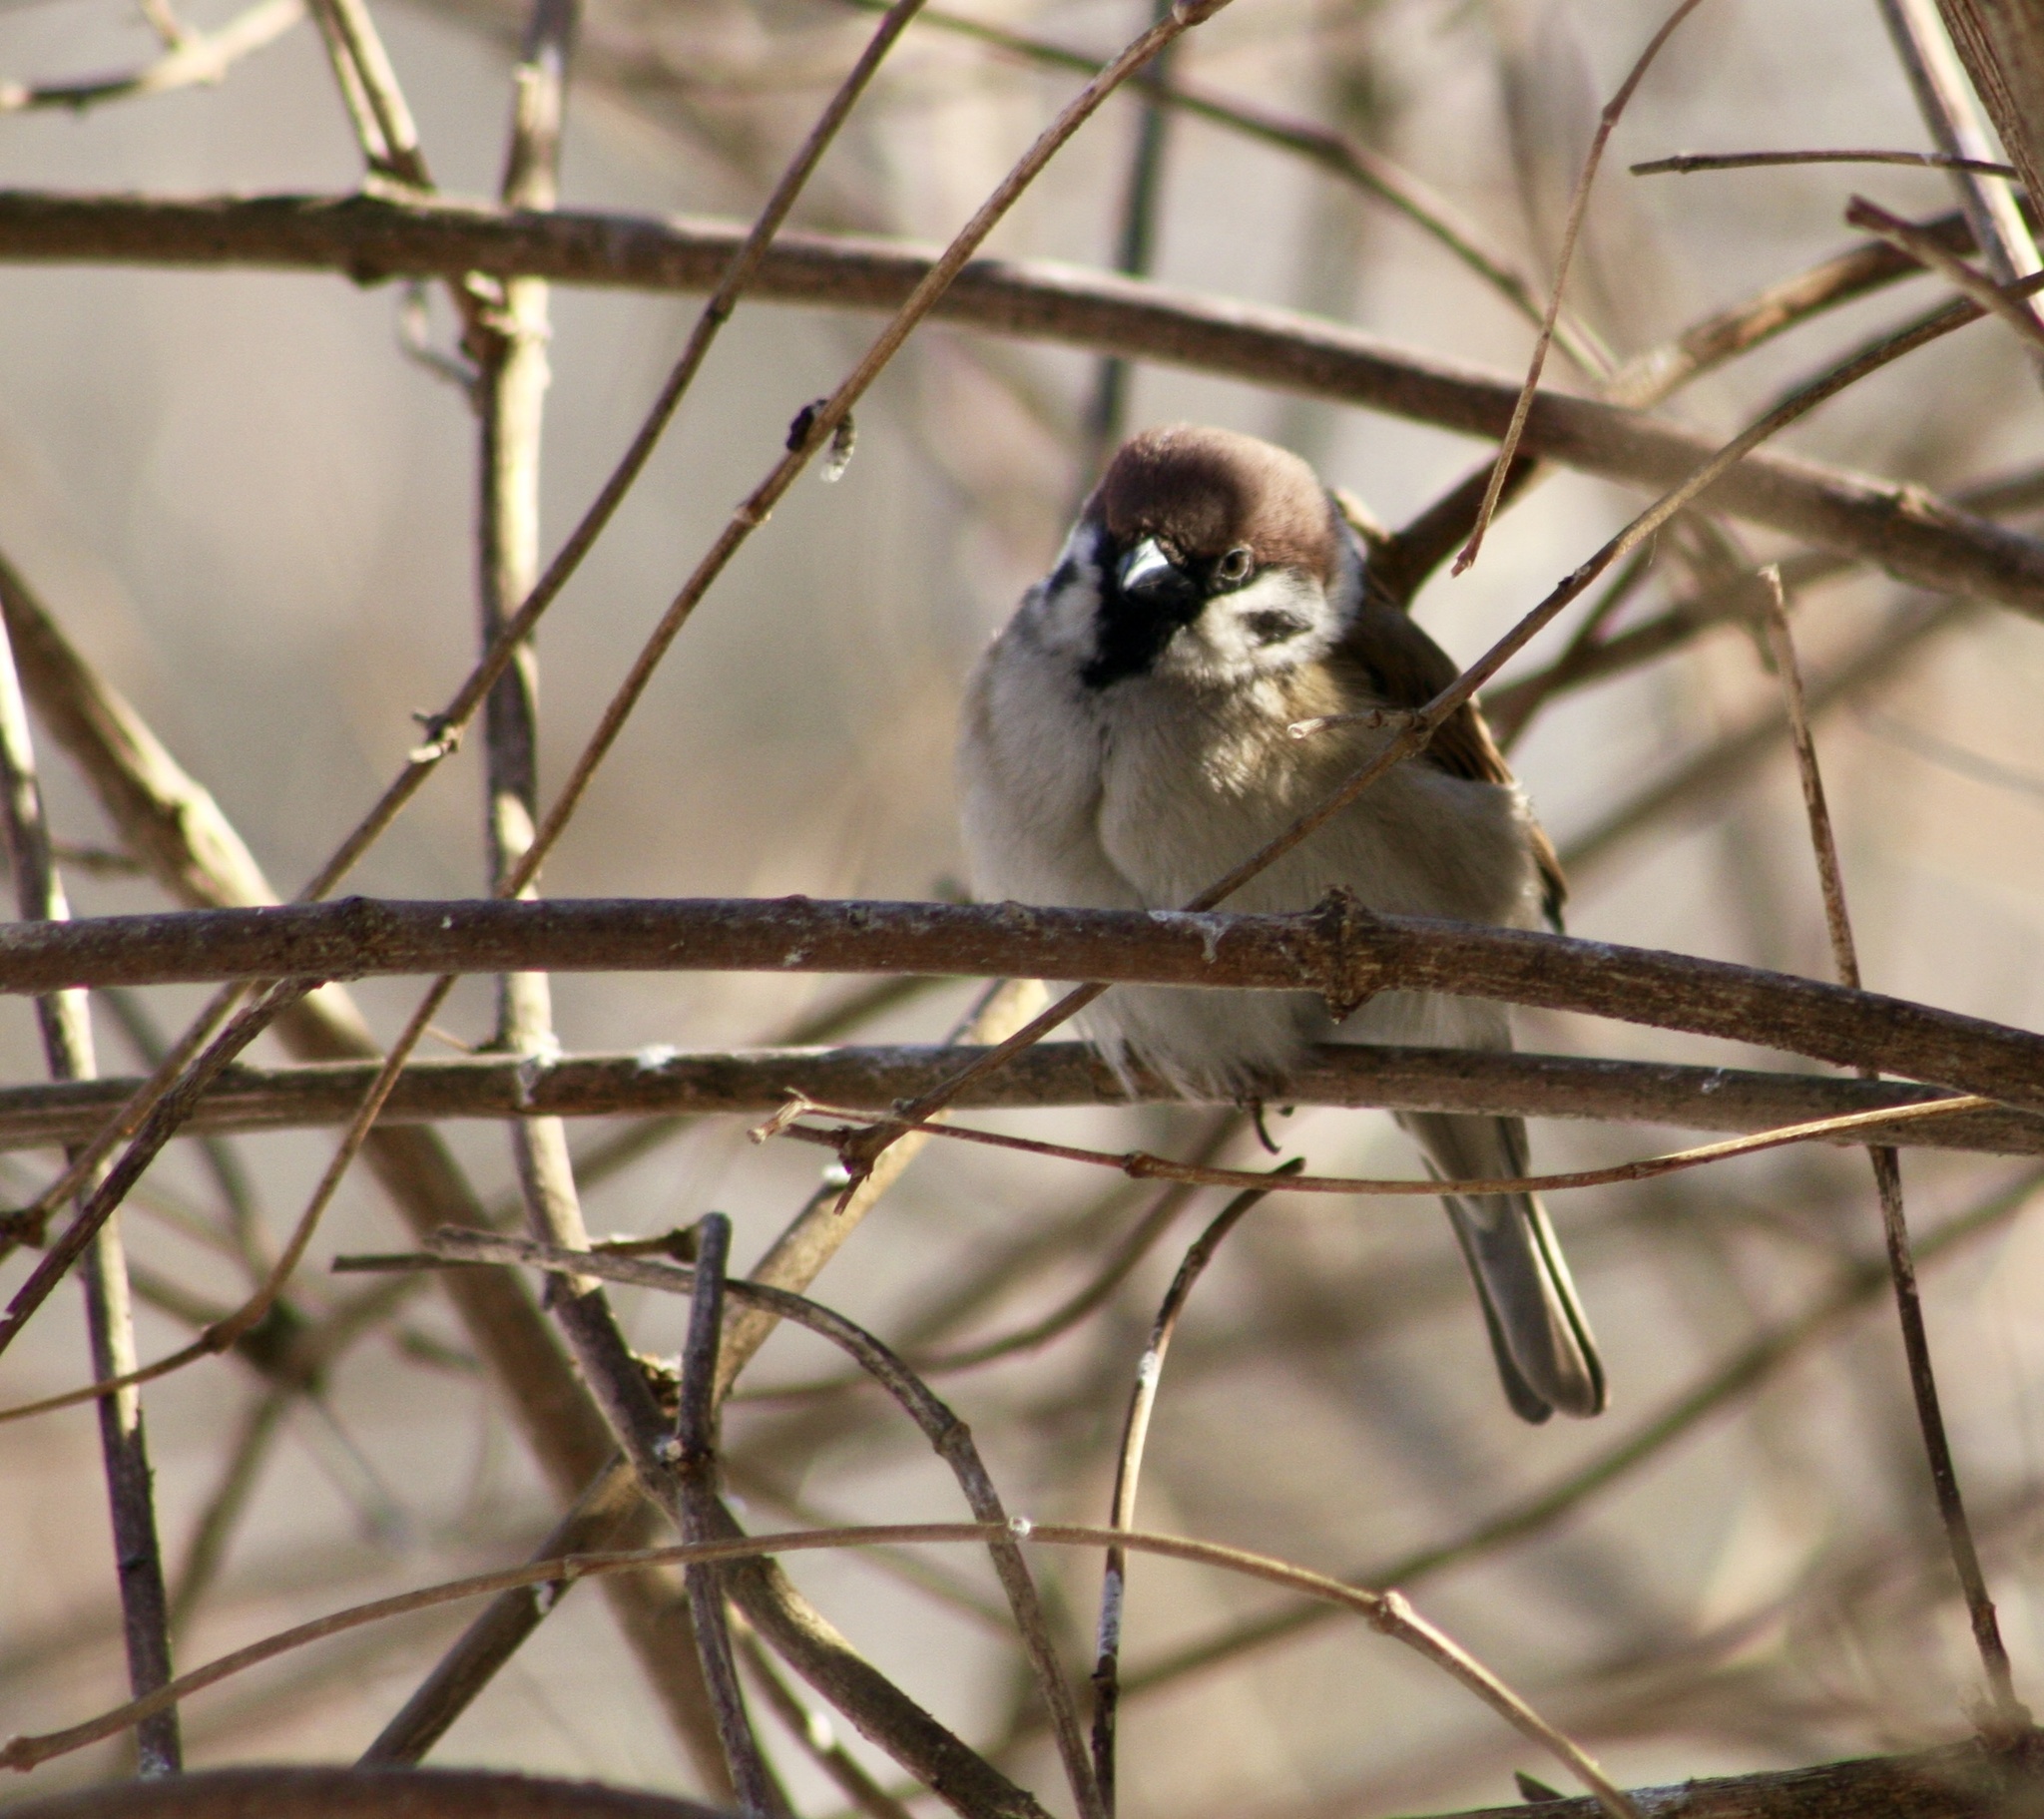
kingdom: Animalia
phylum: Chordata
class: Aves
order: Passeriformes
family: Passeridae
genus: Passer
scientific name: Passer montanus
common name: Eurasian tree sparrow
